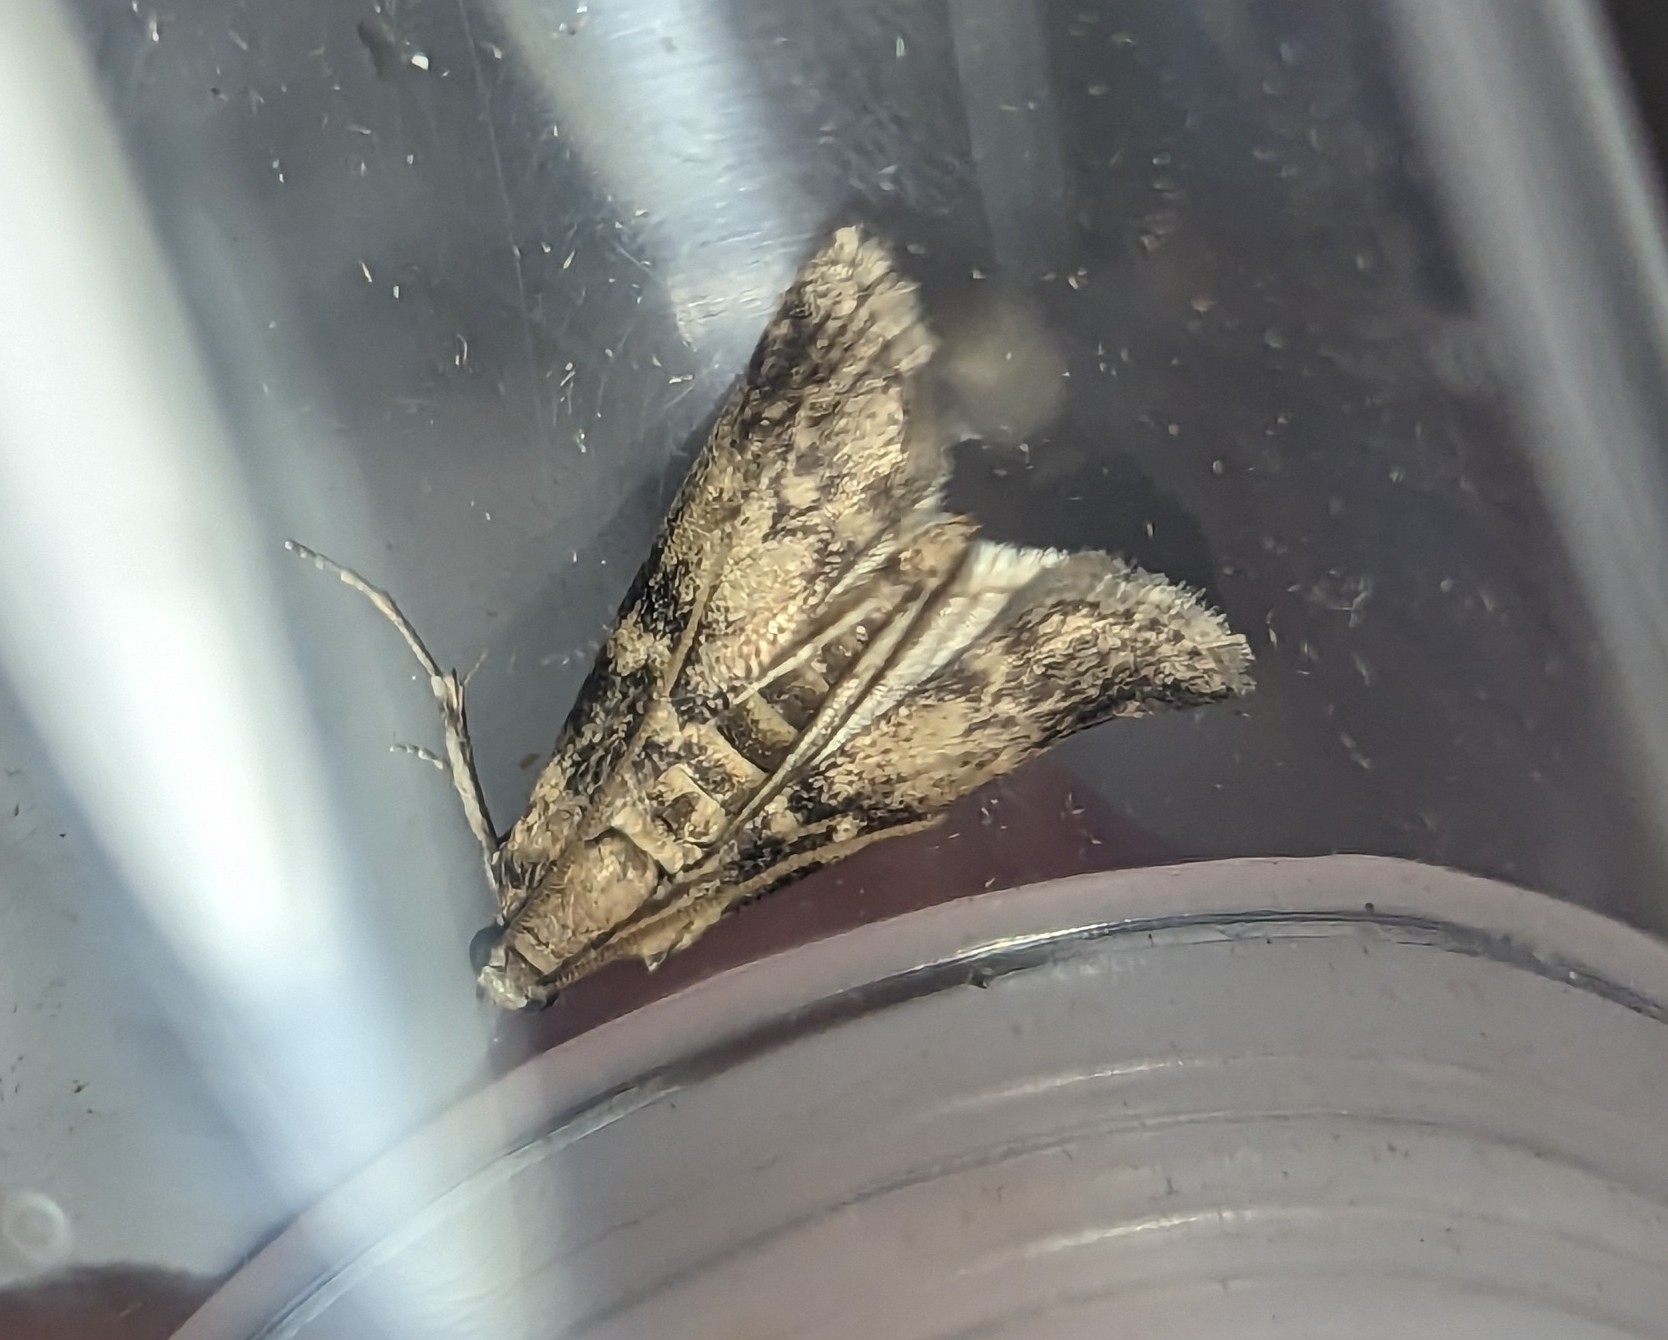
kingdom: Animalia
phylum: Arthropoda
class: Insecta
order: Lepidoptera
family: Pyralidae
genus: Euzophera
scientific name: Euzophera pinguis
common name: Ash-bark knot-horn
